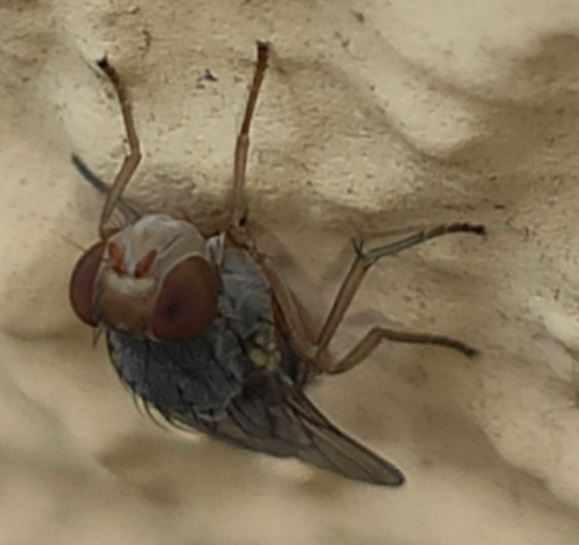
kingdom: Animalia
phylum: Arthropoda
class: Insecta
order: Diptera
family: Lauxaniidae
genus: Prosopomyia
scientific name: Prosopomyia pallida
